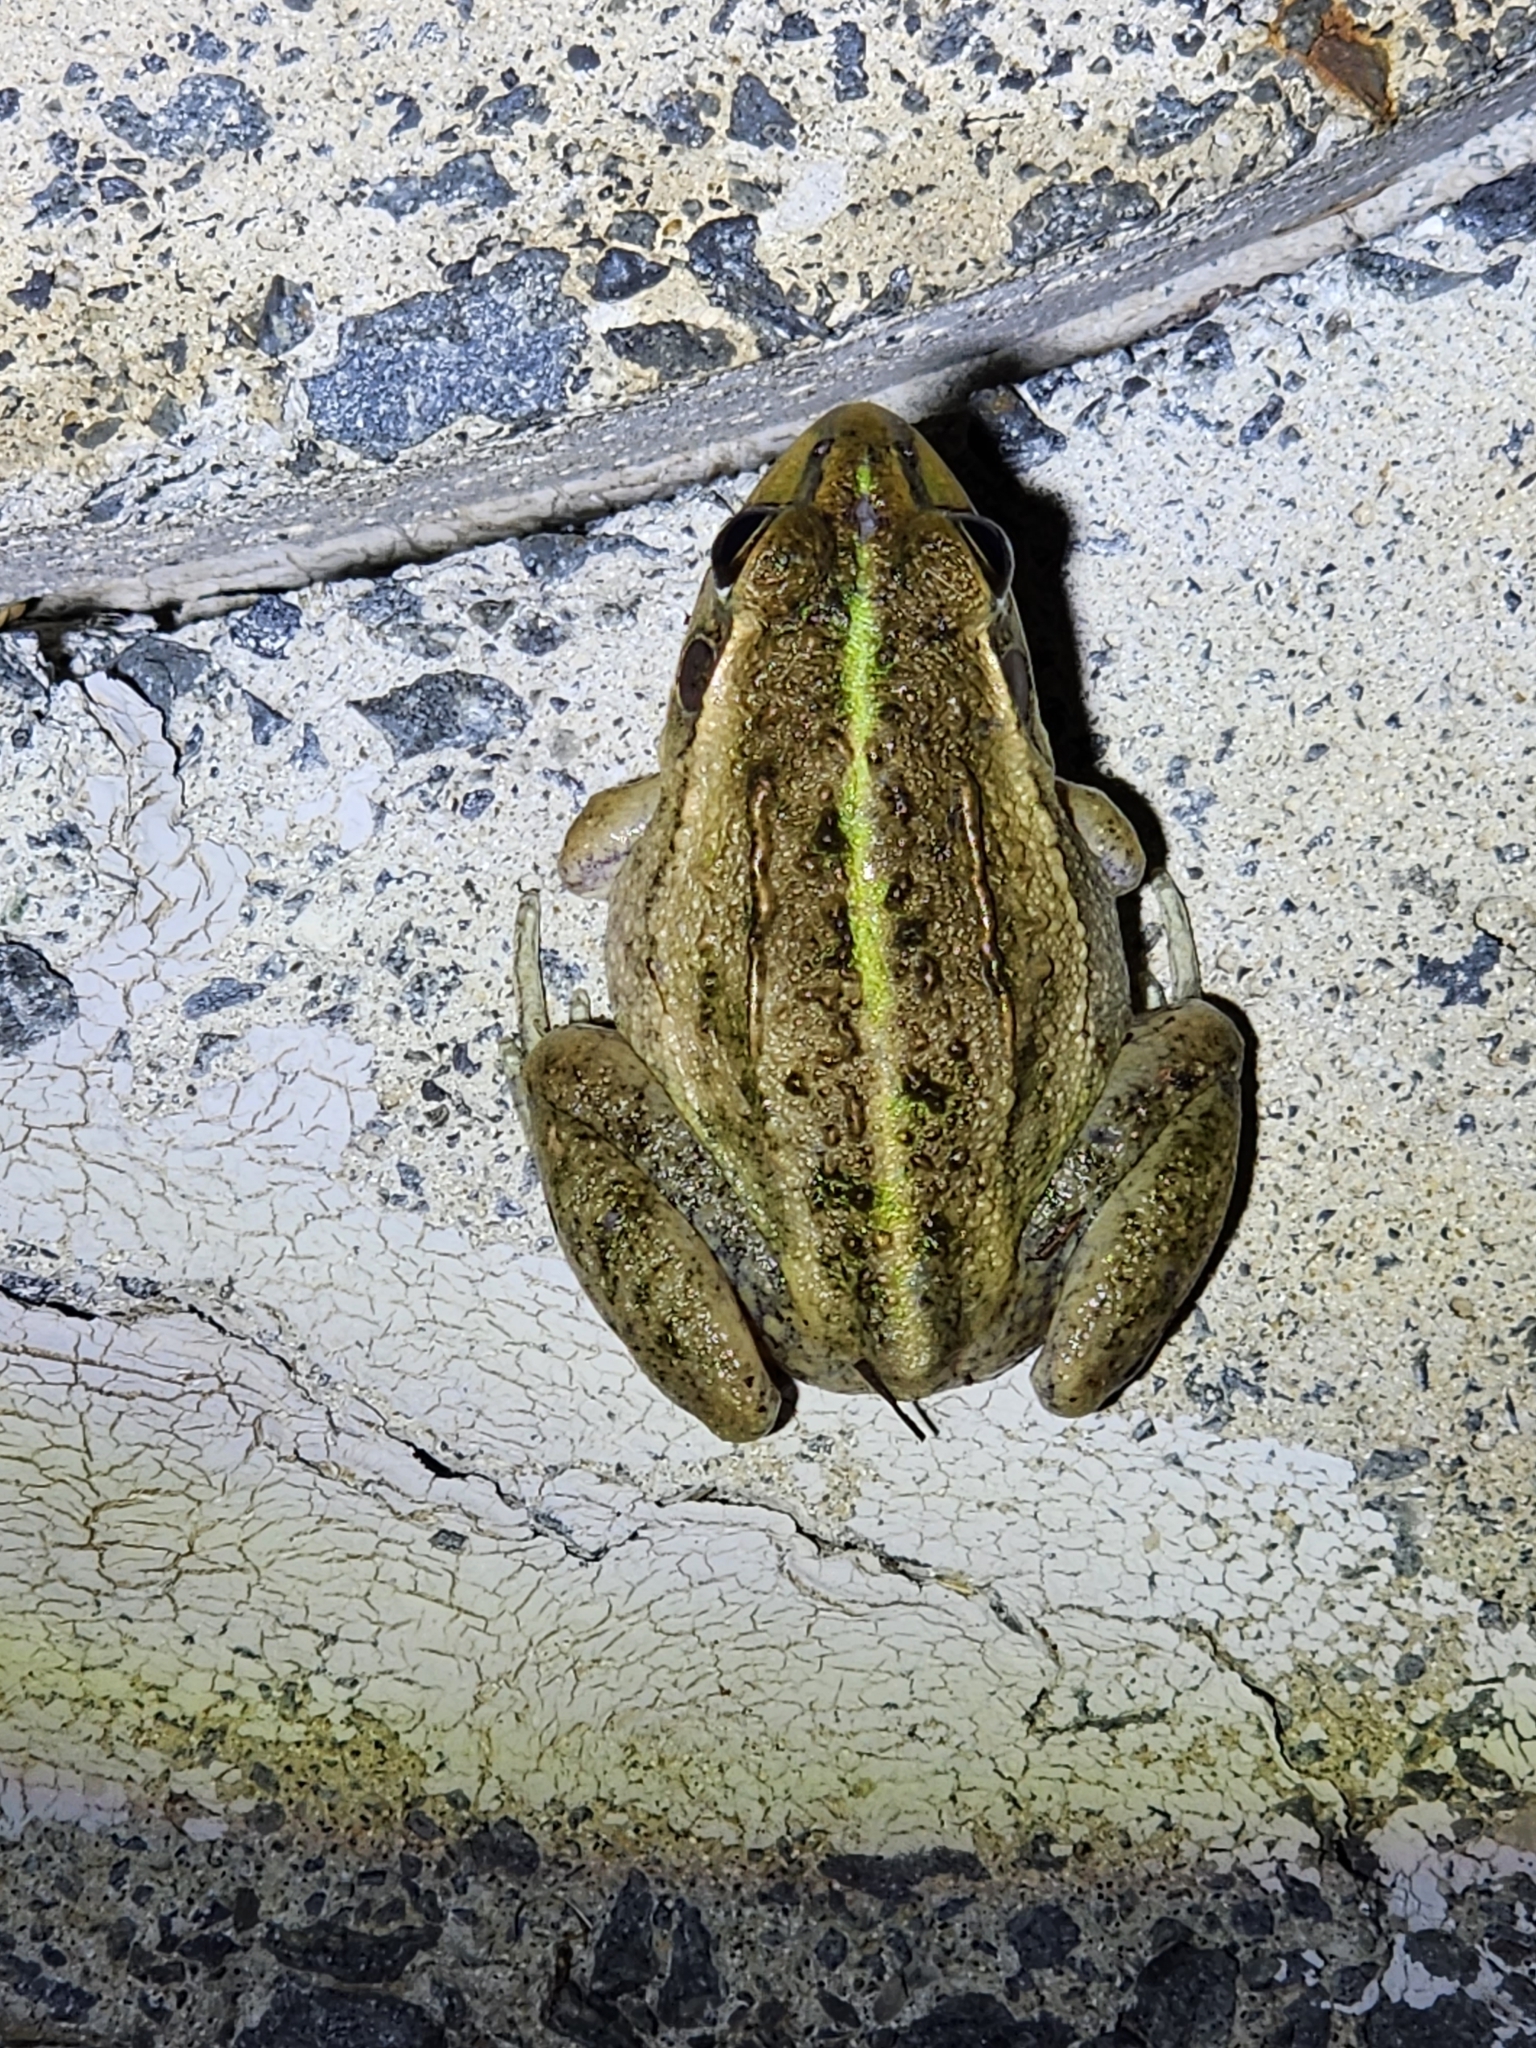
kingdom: Animalia
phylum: Chordata
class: Amphibia
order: Anura
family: Pelodryadidae
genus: Ranoidea
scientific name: Ranoidea alboguttata
